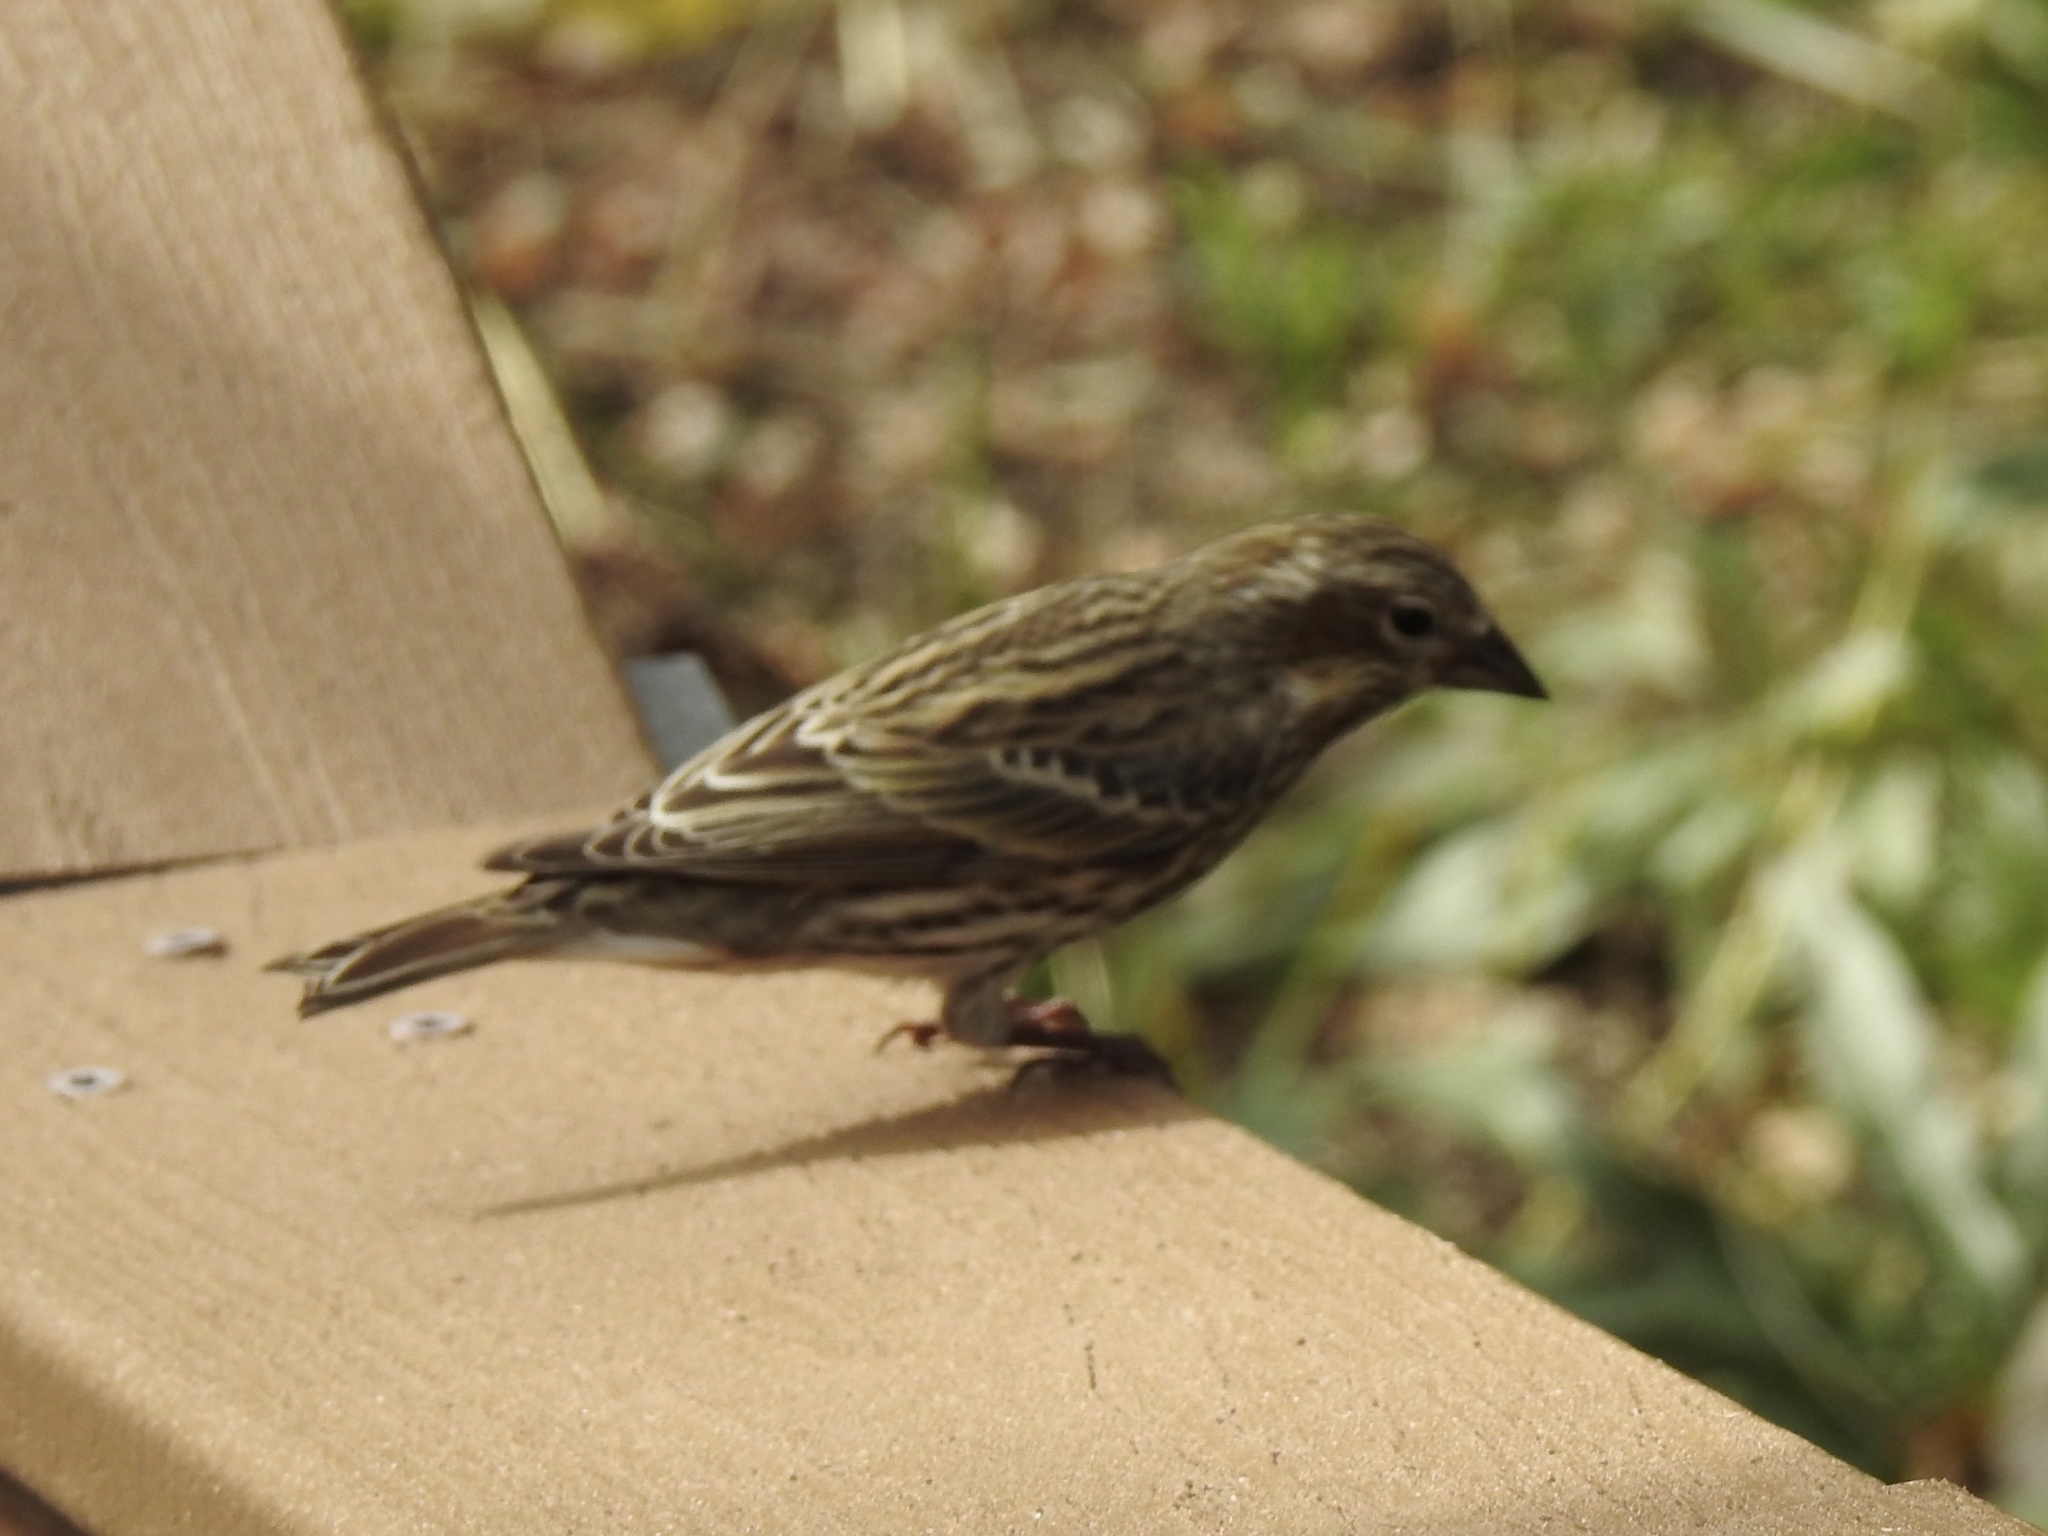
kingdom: Animalia
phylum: Chordata
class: Aves
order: Passeriformes
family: Fringillidae
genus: Haemorhous
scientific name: Haemorhous cassinii
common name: Cassin's finch
